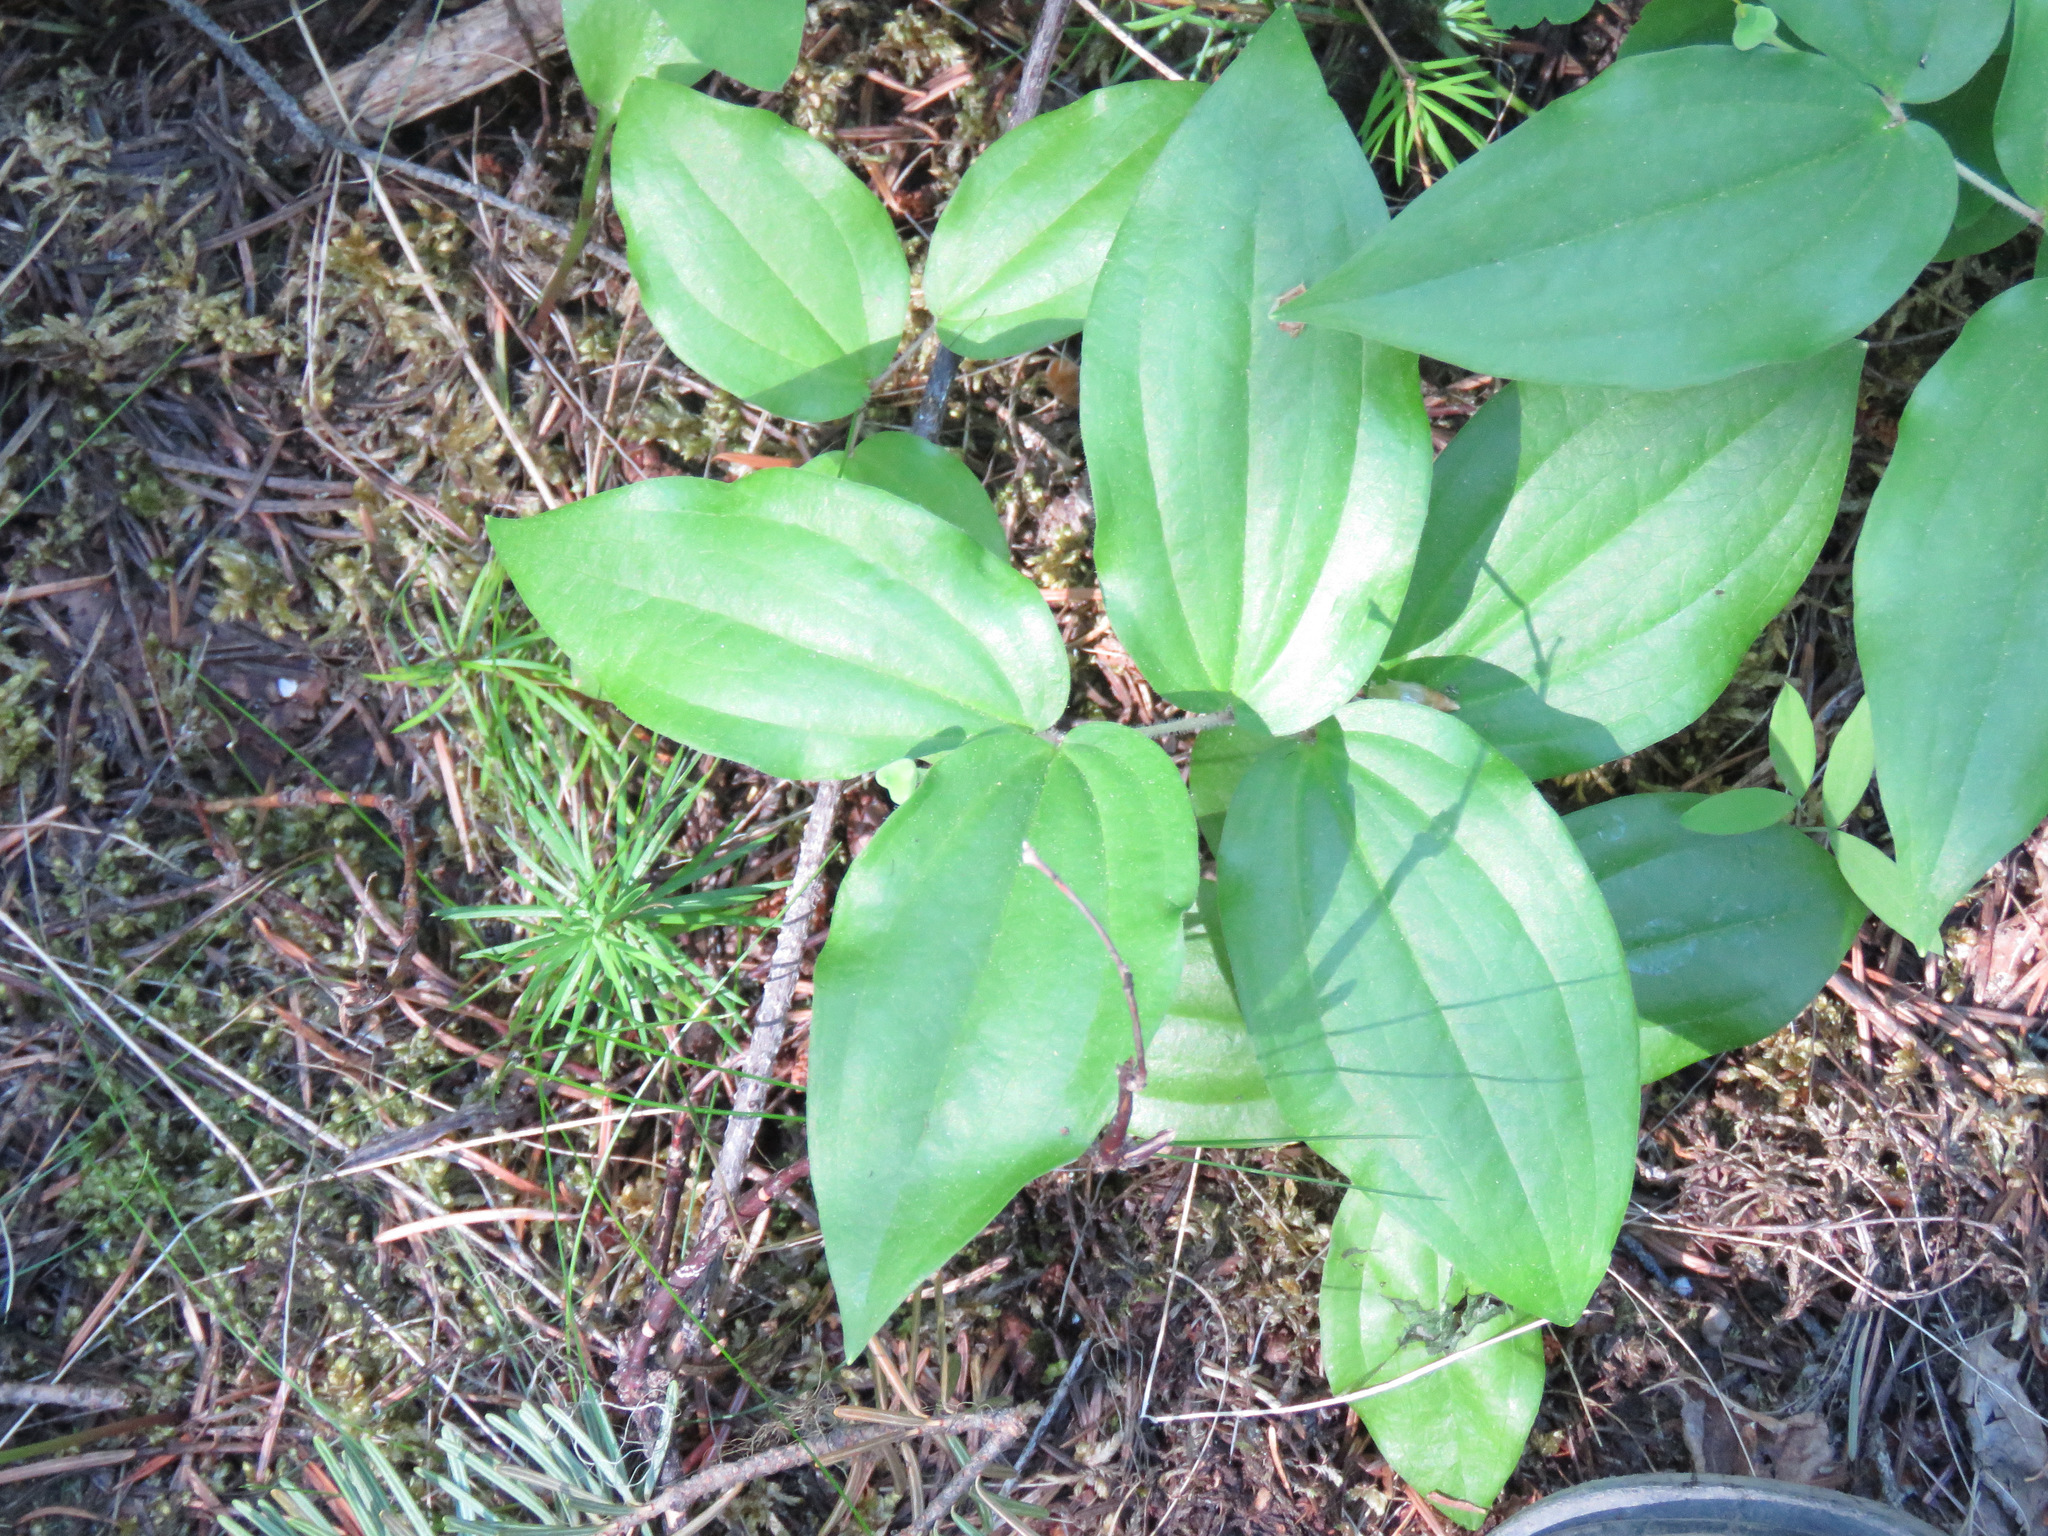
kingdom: Plantae
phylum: Tracheophyta
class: Liliopsida
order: Liliales
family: Liliaceae
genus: Prosartes
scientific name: Prosartes trachycarpa
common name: Rough-fruit fairy-bells
